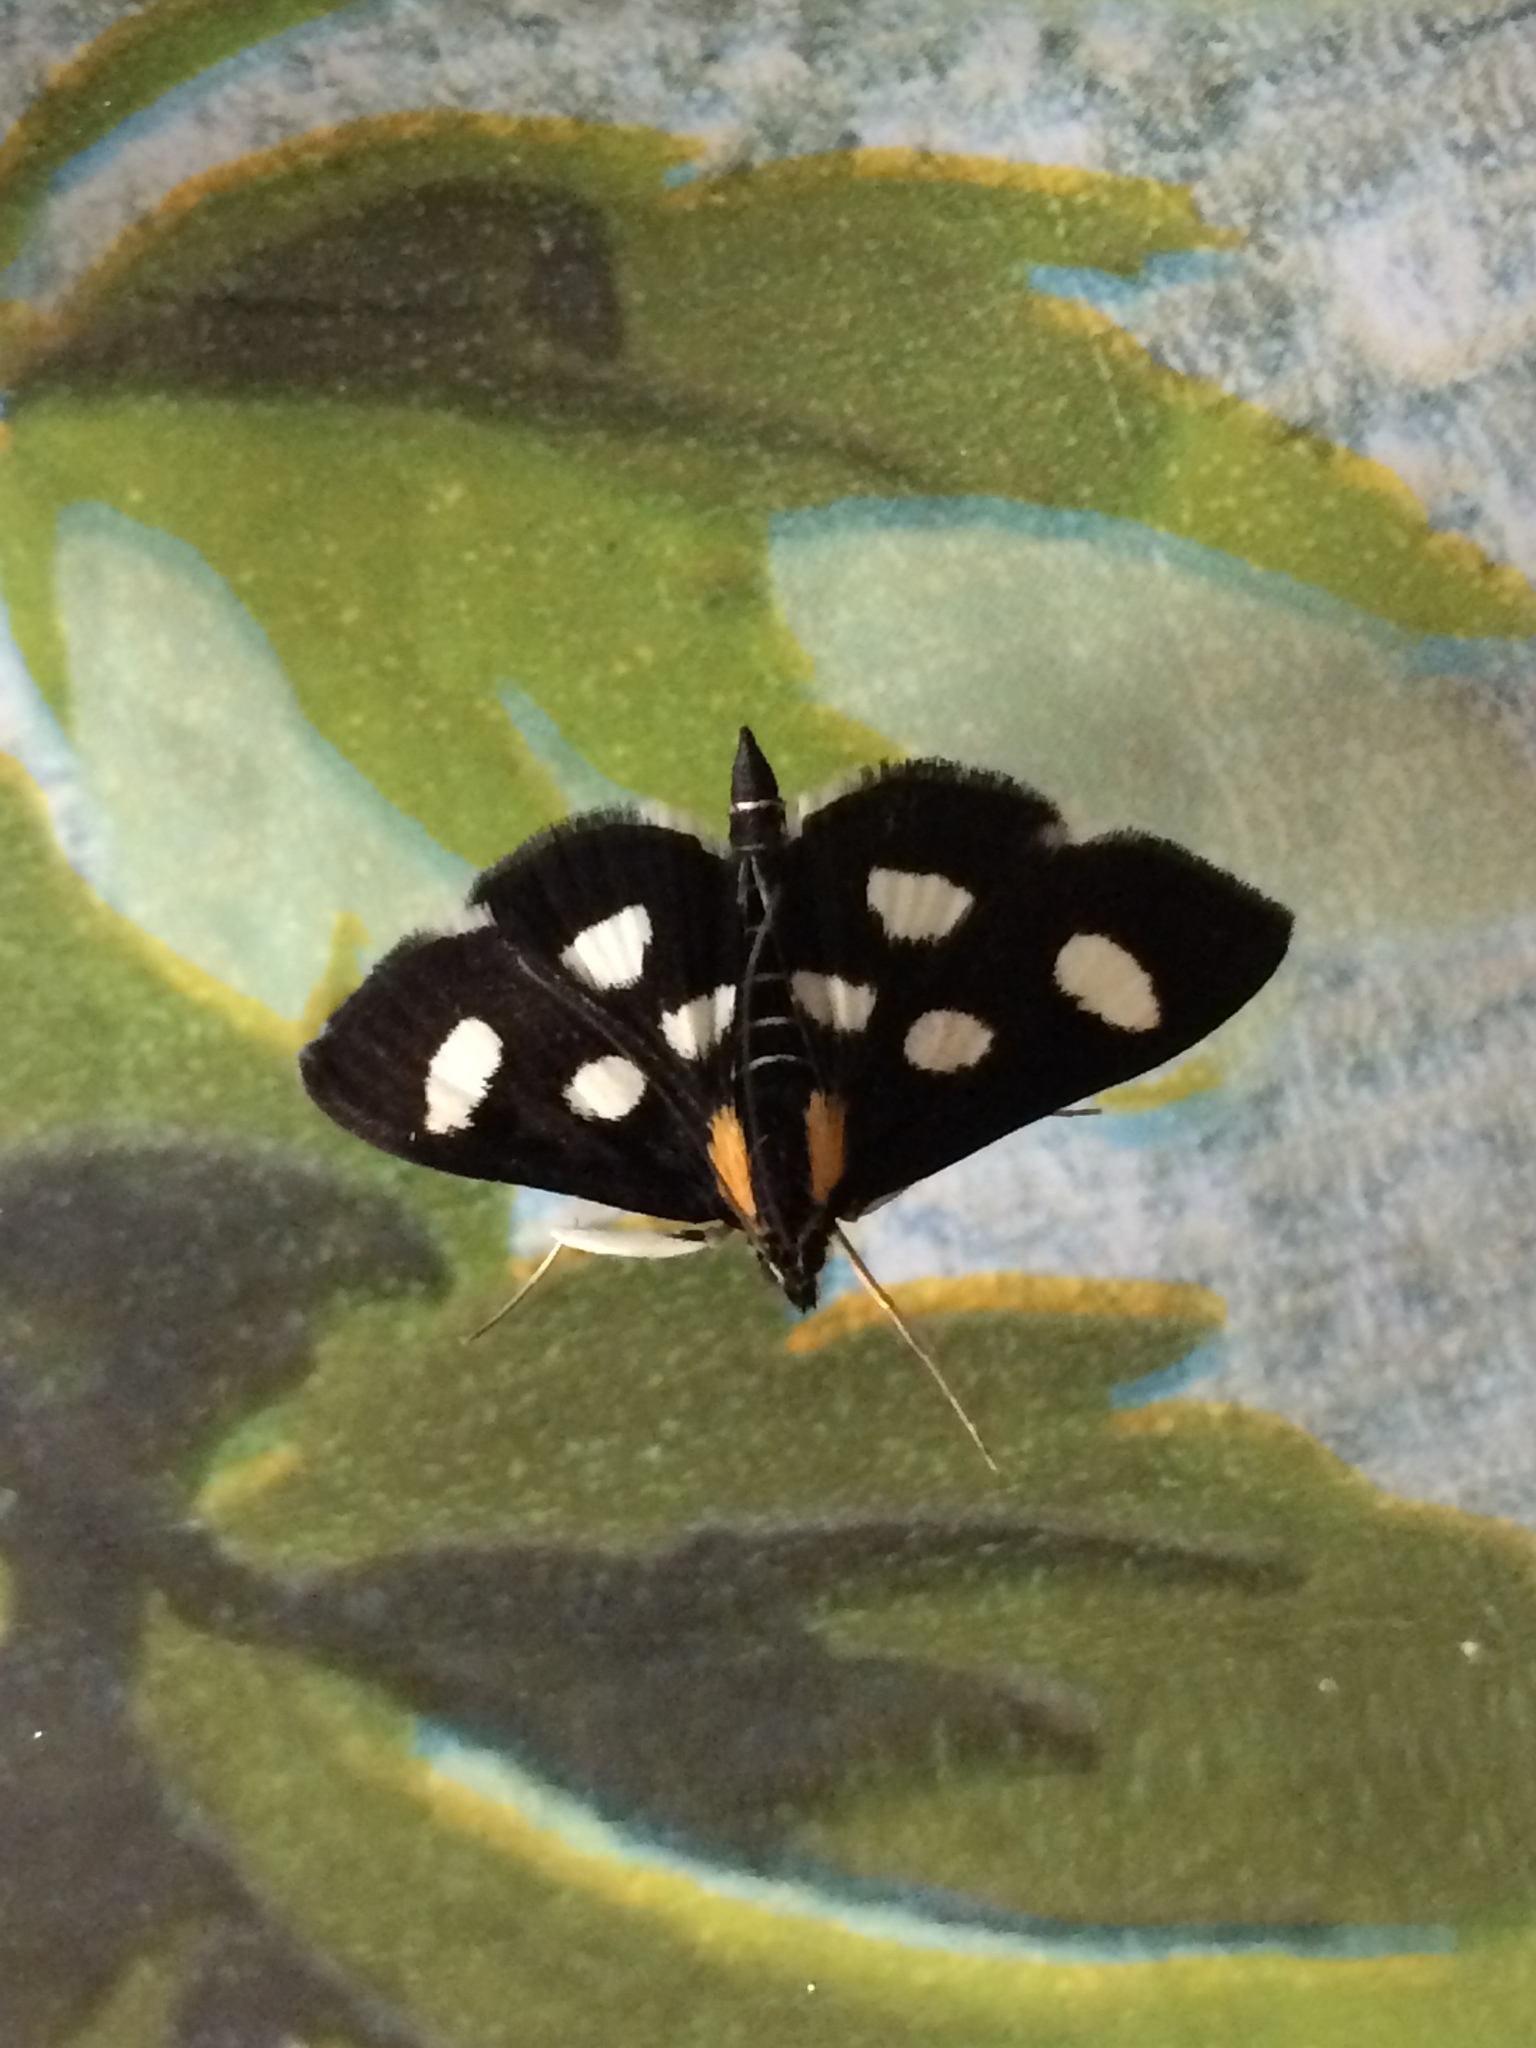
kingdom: Animalia
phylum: Arthropoda
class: Insecta
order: Lepidoptera
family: Crambidae
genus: Anania
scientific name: Anania funebris
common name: White-spotted sable moth
